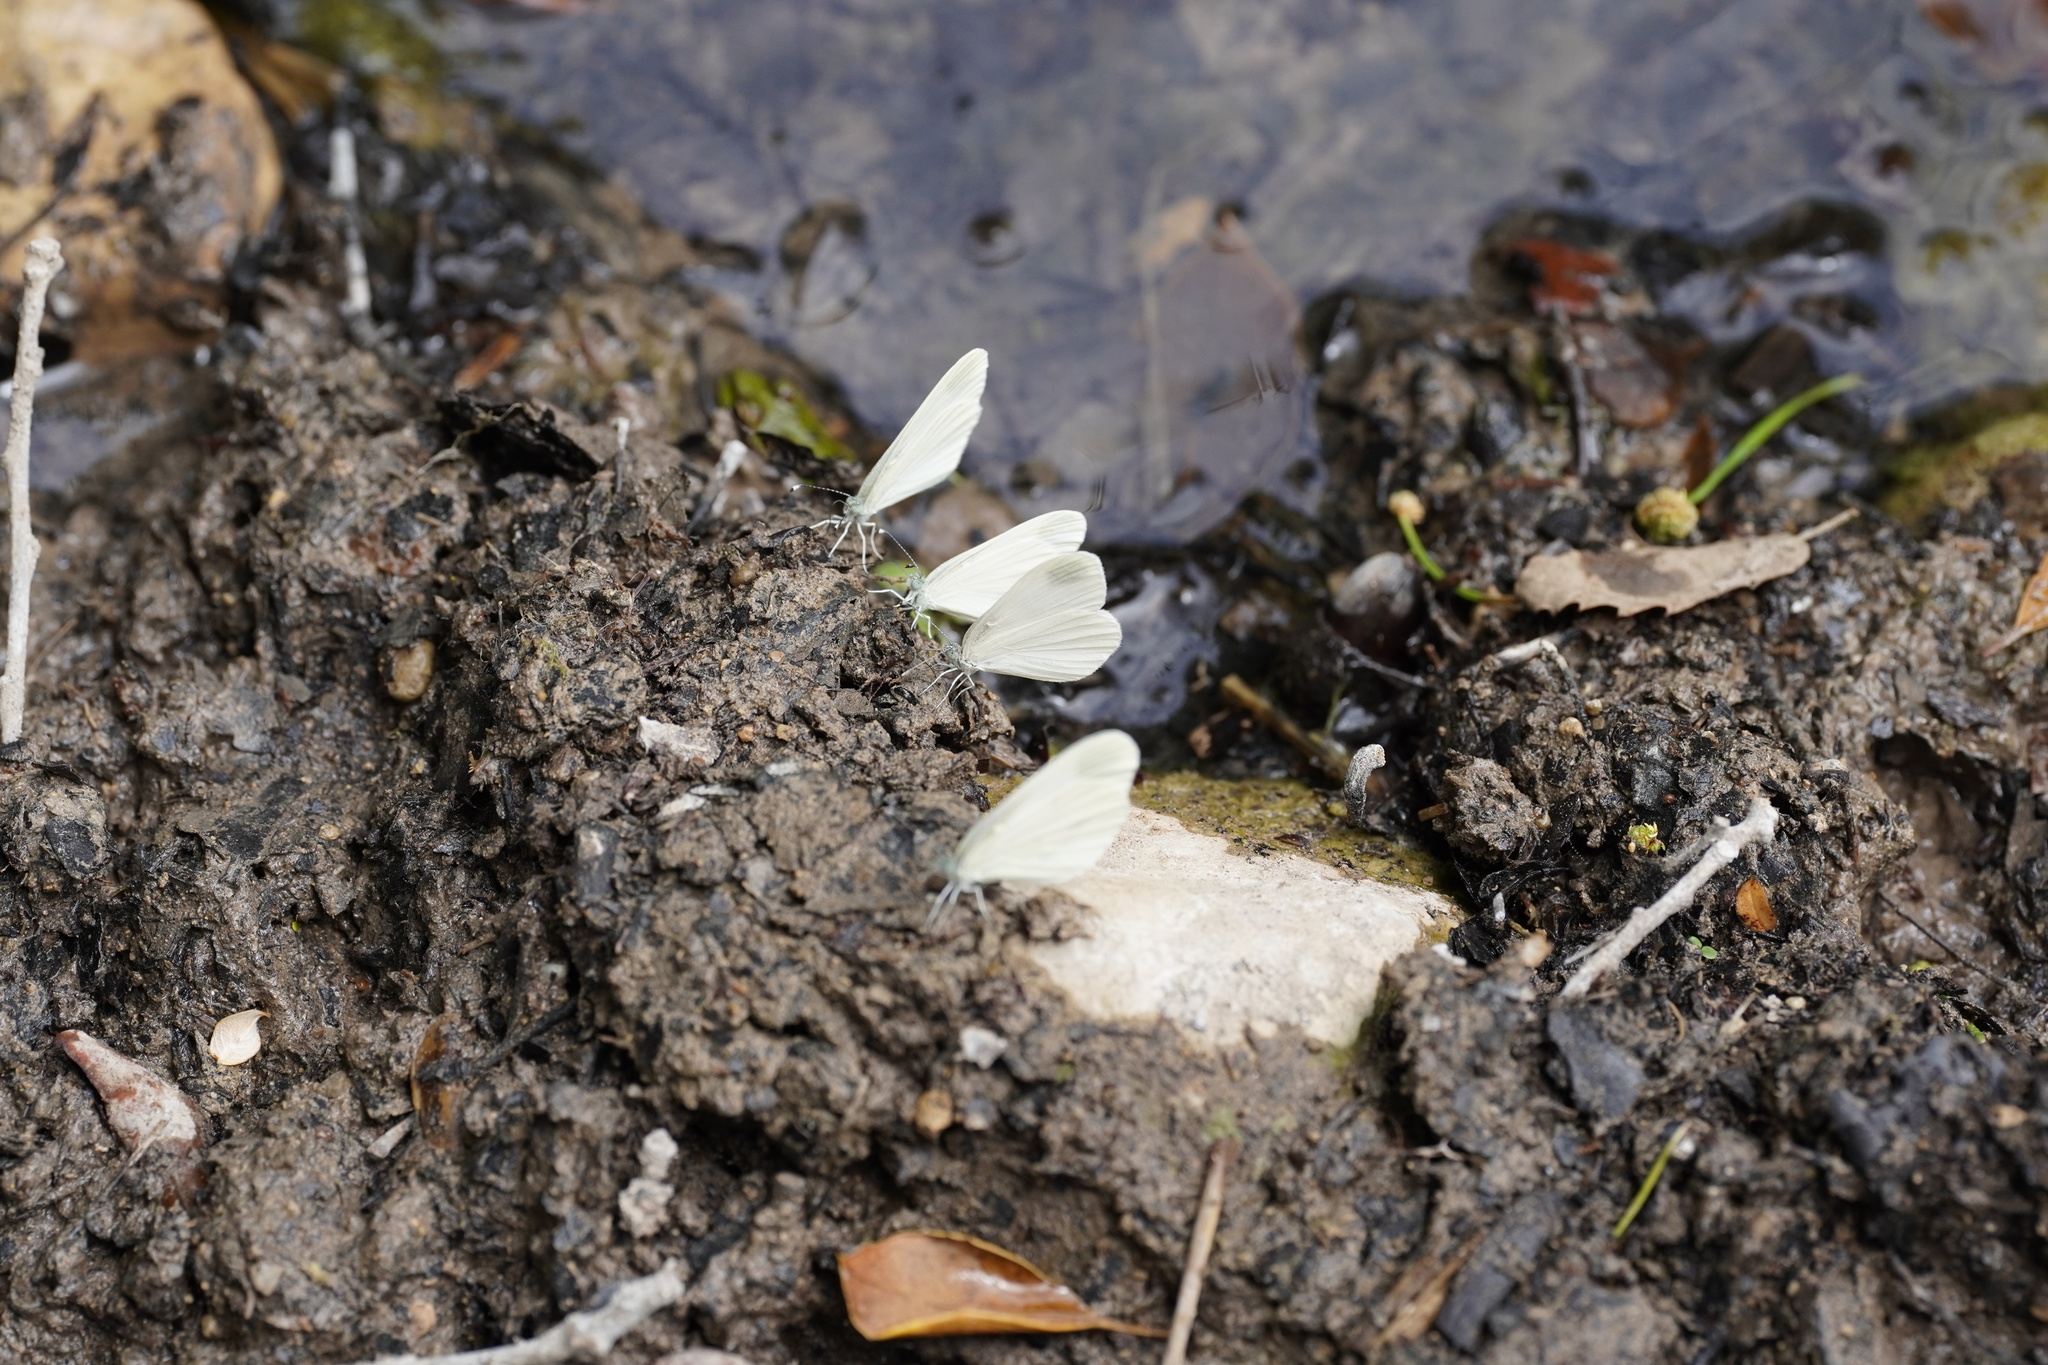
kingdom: Animalia
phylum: Arthropoda
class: Insecta
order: Lepidoptera
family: Pieridae
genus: Leptidea
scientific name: Leptidea sinapis
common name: Wood white
